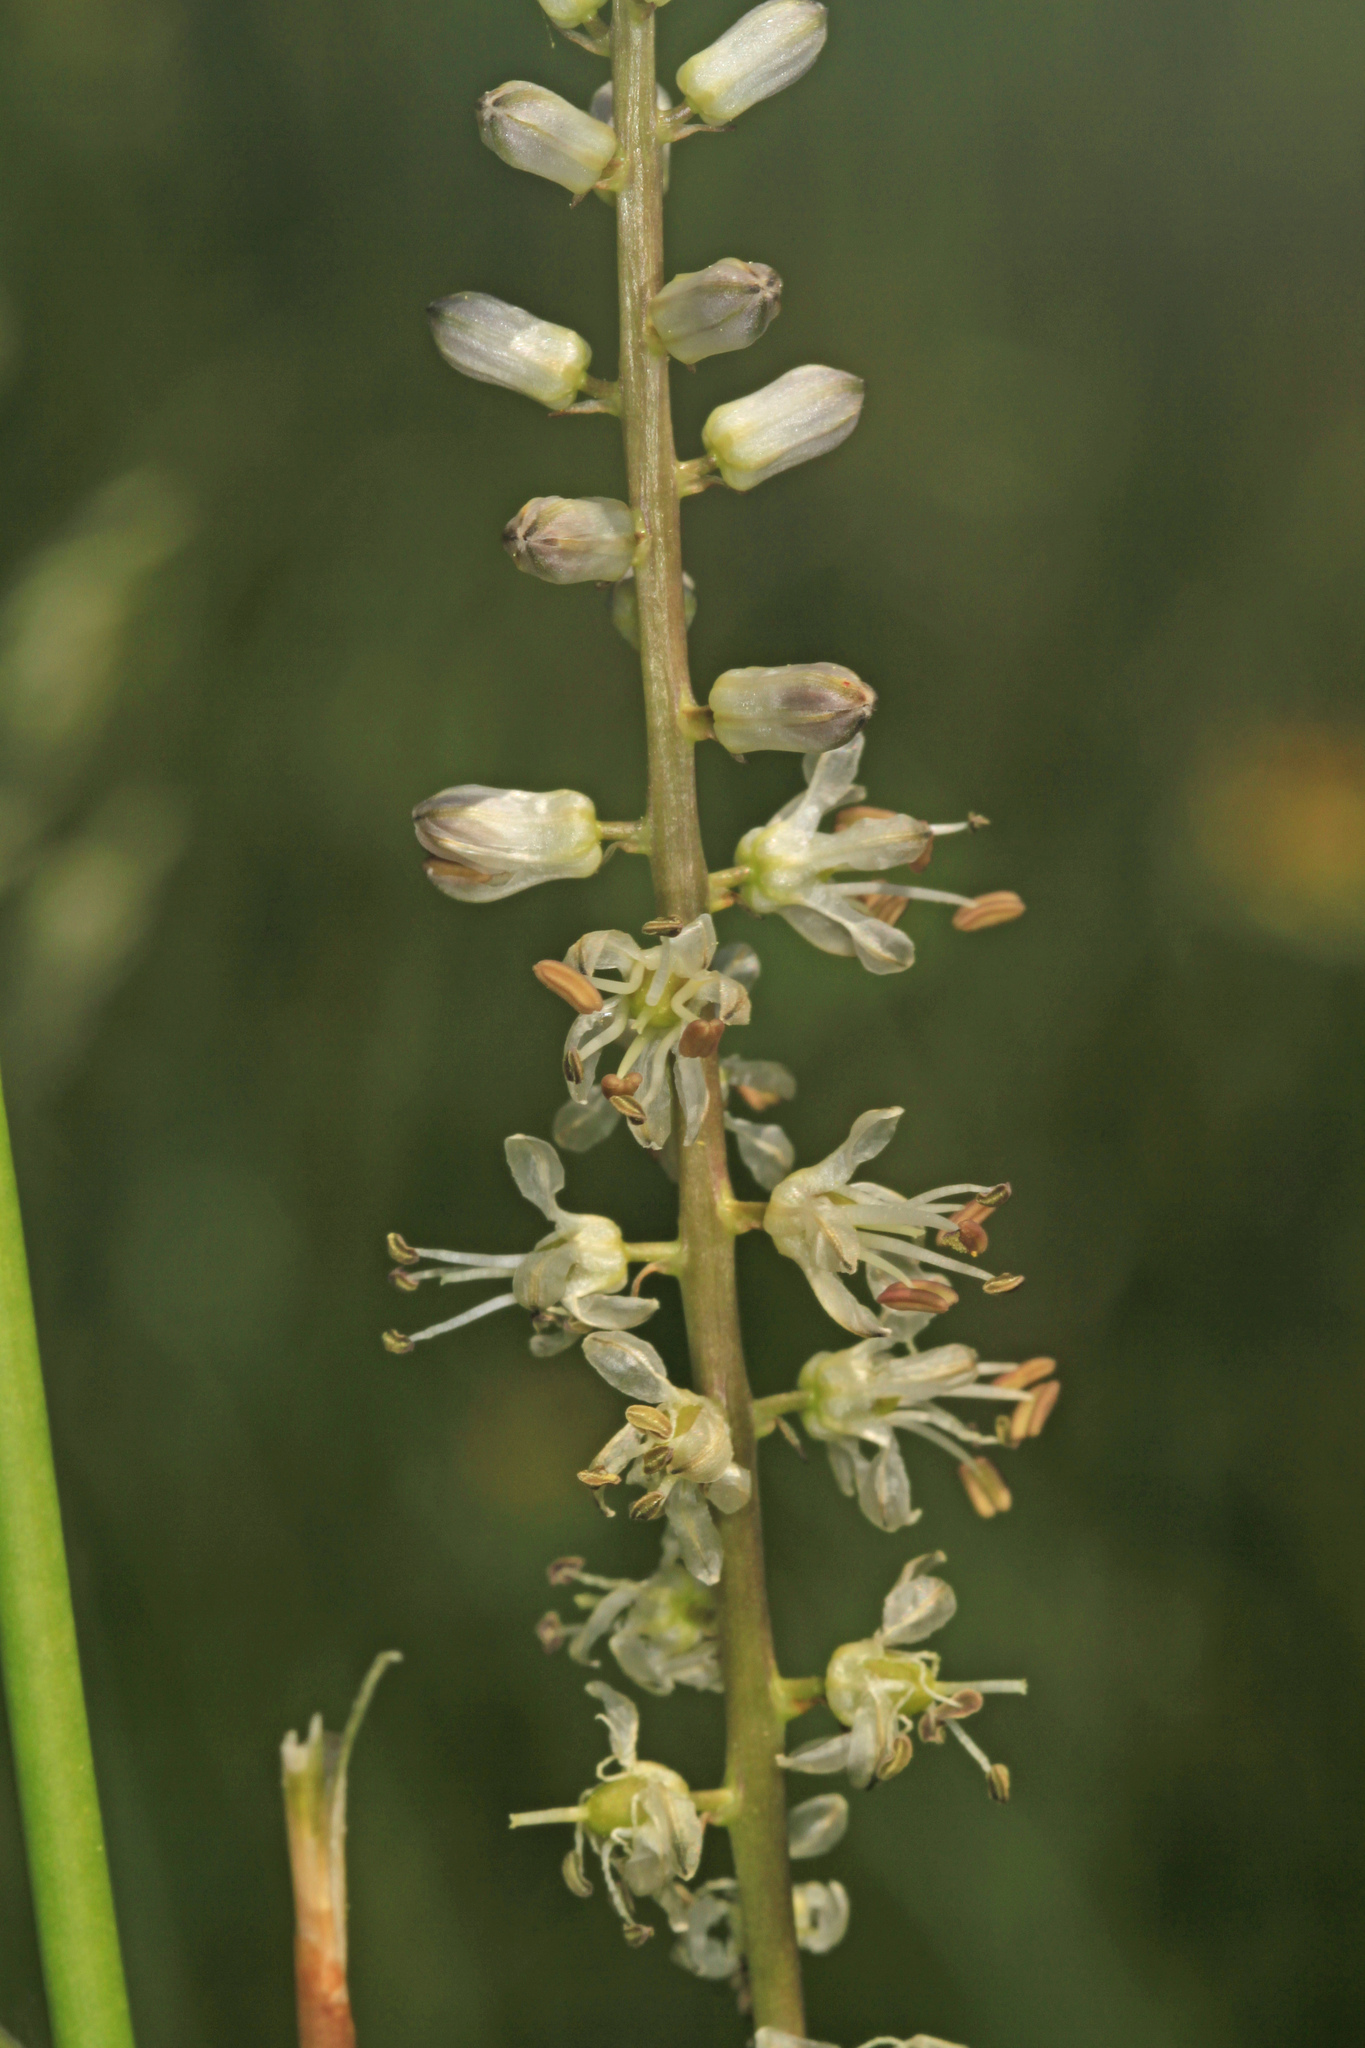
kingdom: Plantae
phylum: Tracheophyta
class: Liliopsida
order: Asparagales
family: Asparagaceae
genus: Hastingsia
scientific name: Hastingsia alba
